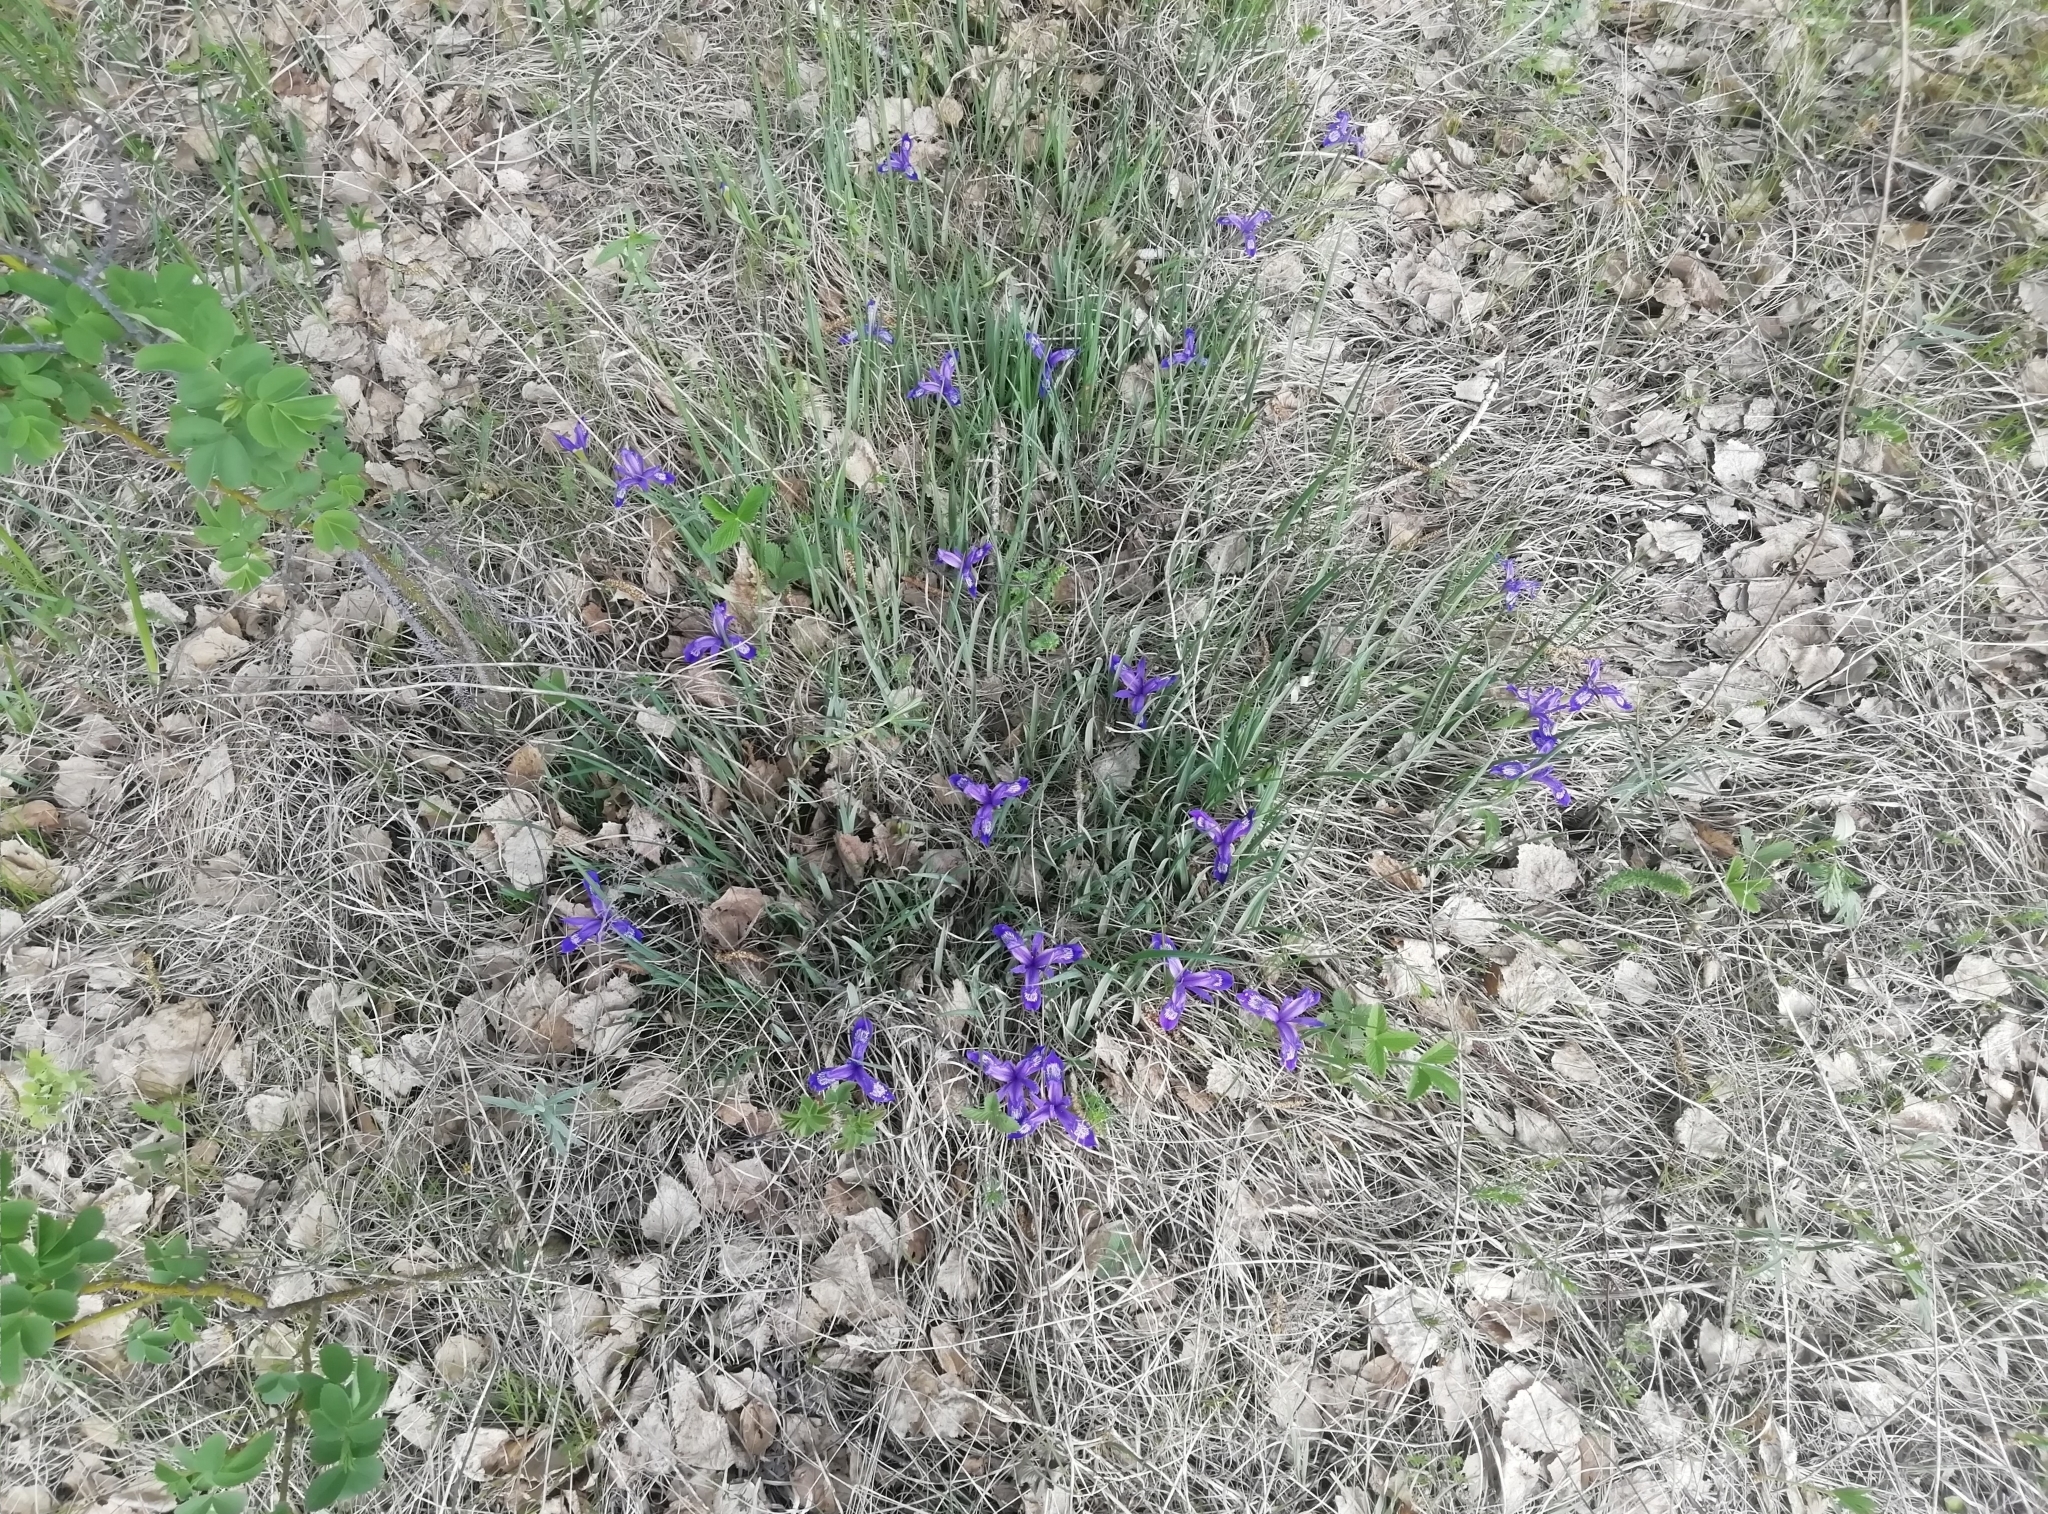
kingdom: Plantae
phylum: Tracheophyta
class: Liliopsida
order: Asparagales
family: Iridaceae
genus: Iris
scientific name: Iris ruthenica
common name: Purple-bract iris
